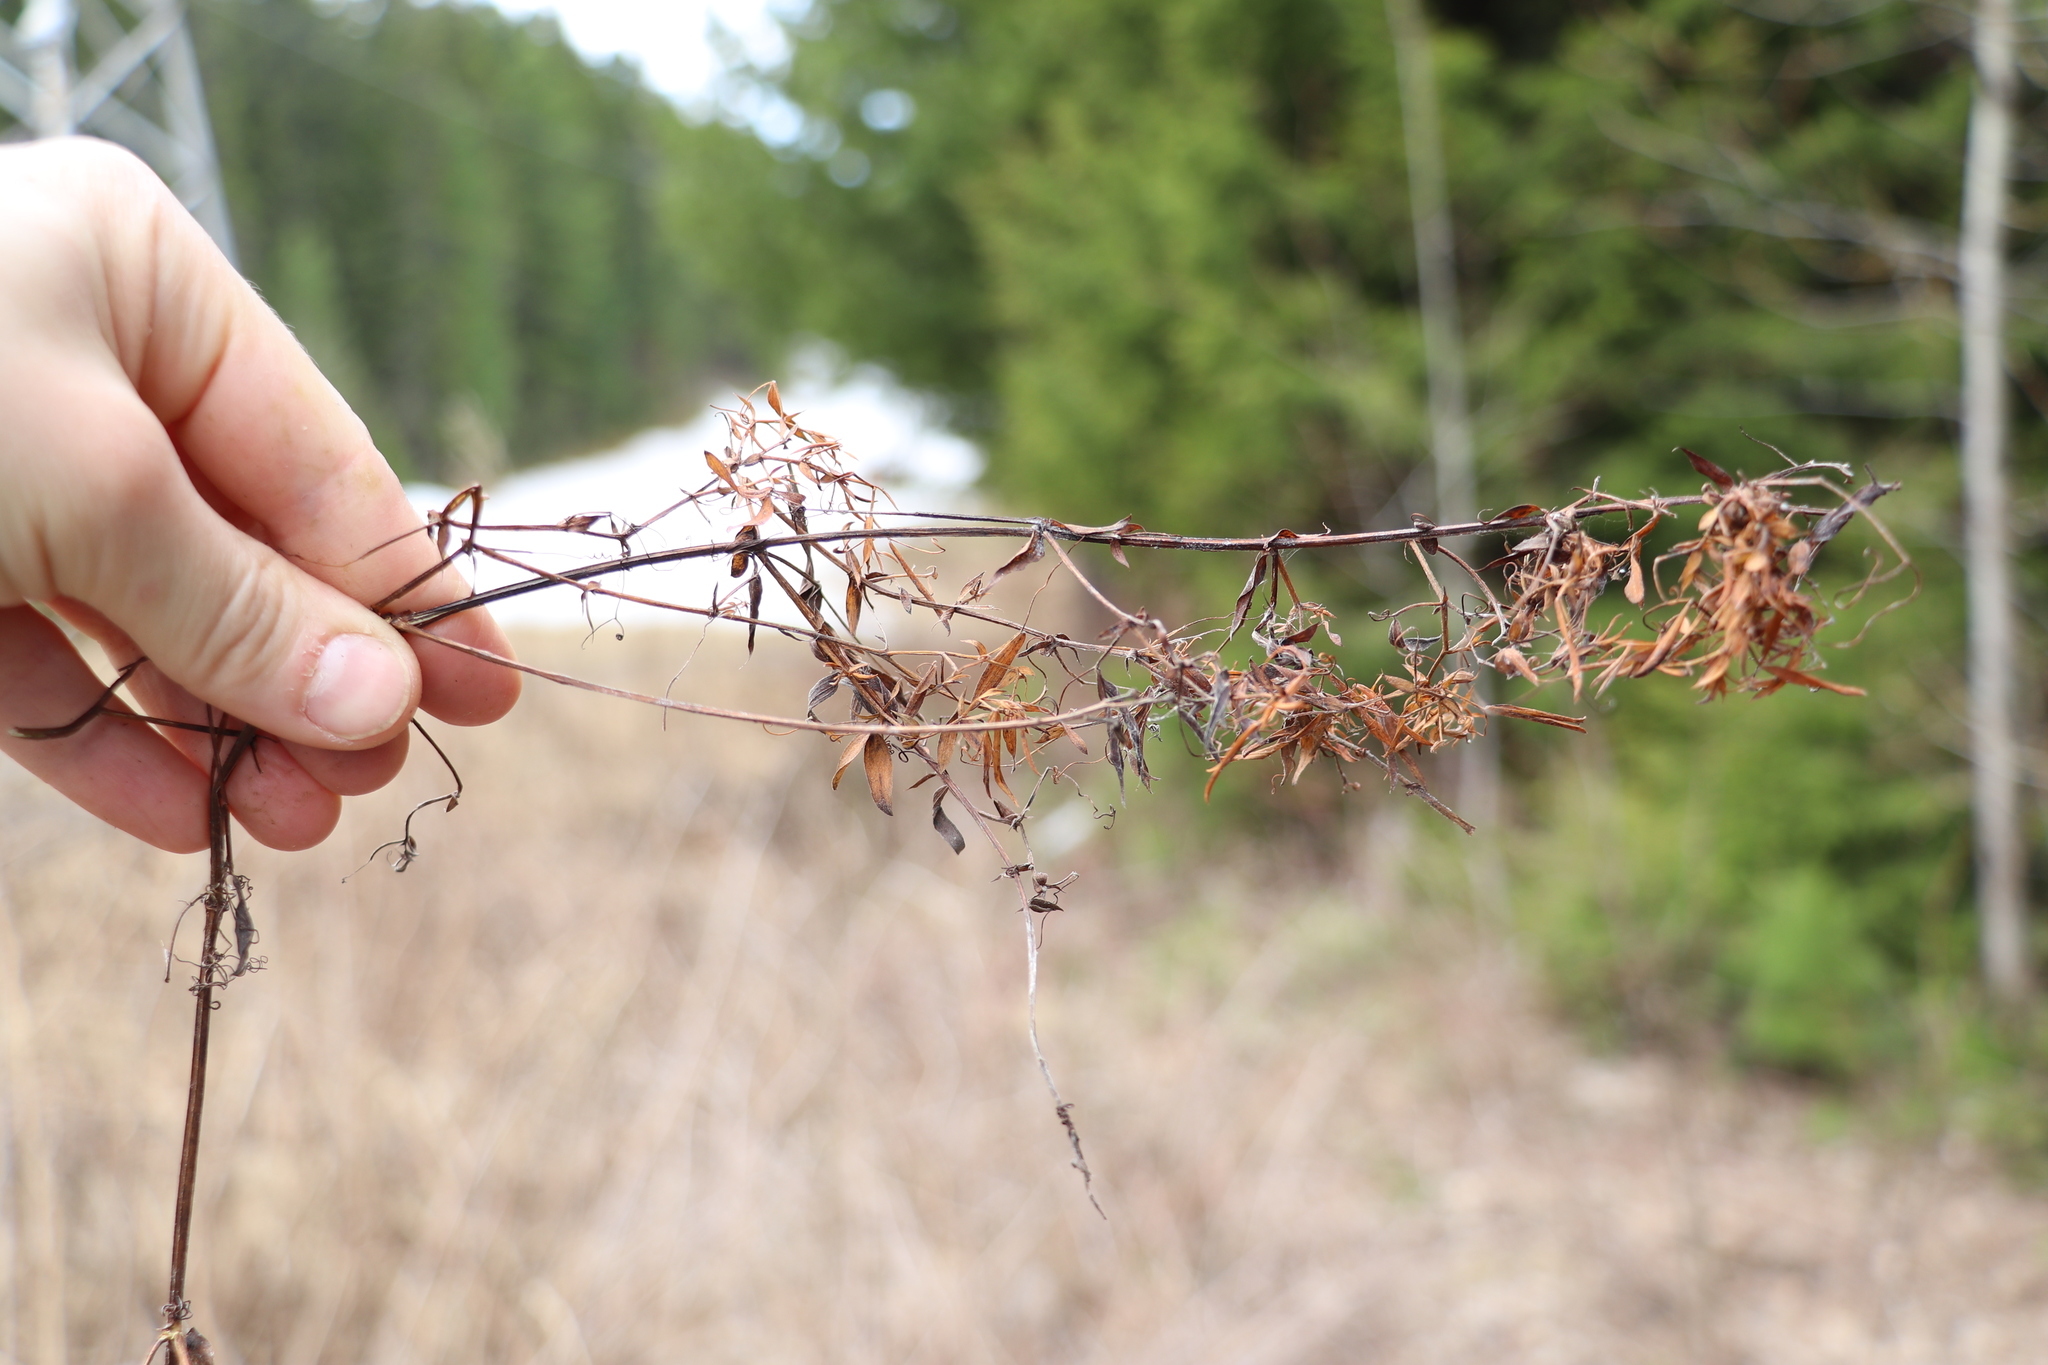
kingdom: Plantae
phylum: Tracheophyta
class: Magnoliopsida
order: Fabales
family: Fabaceae
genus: Lathyrus
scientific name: Lathyrus pratensis
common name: Meadow vetchling
